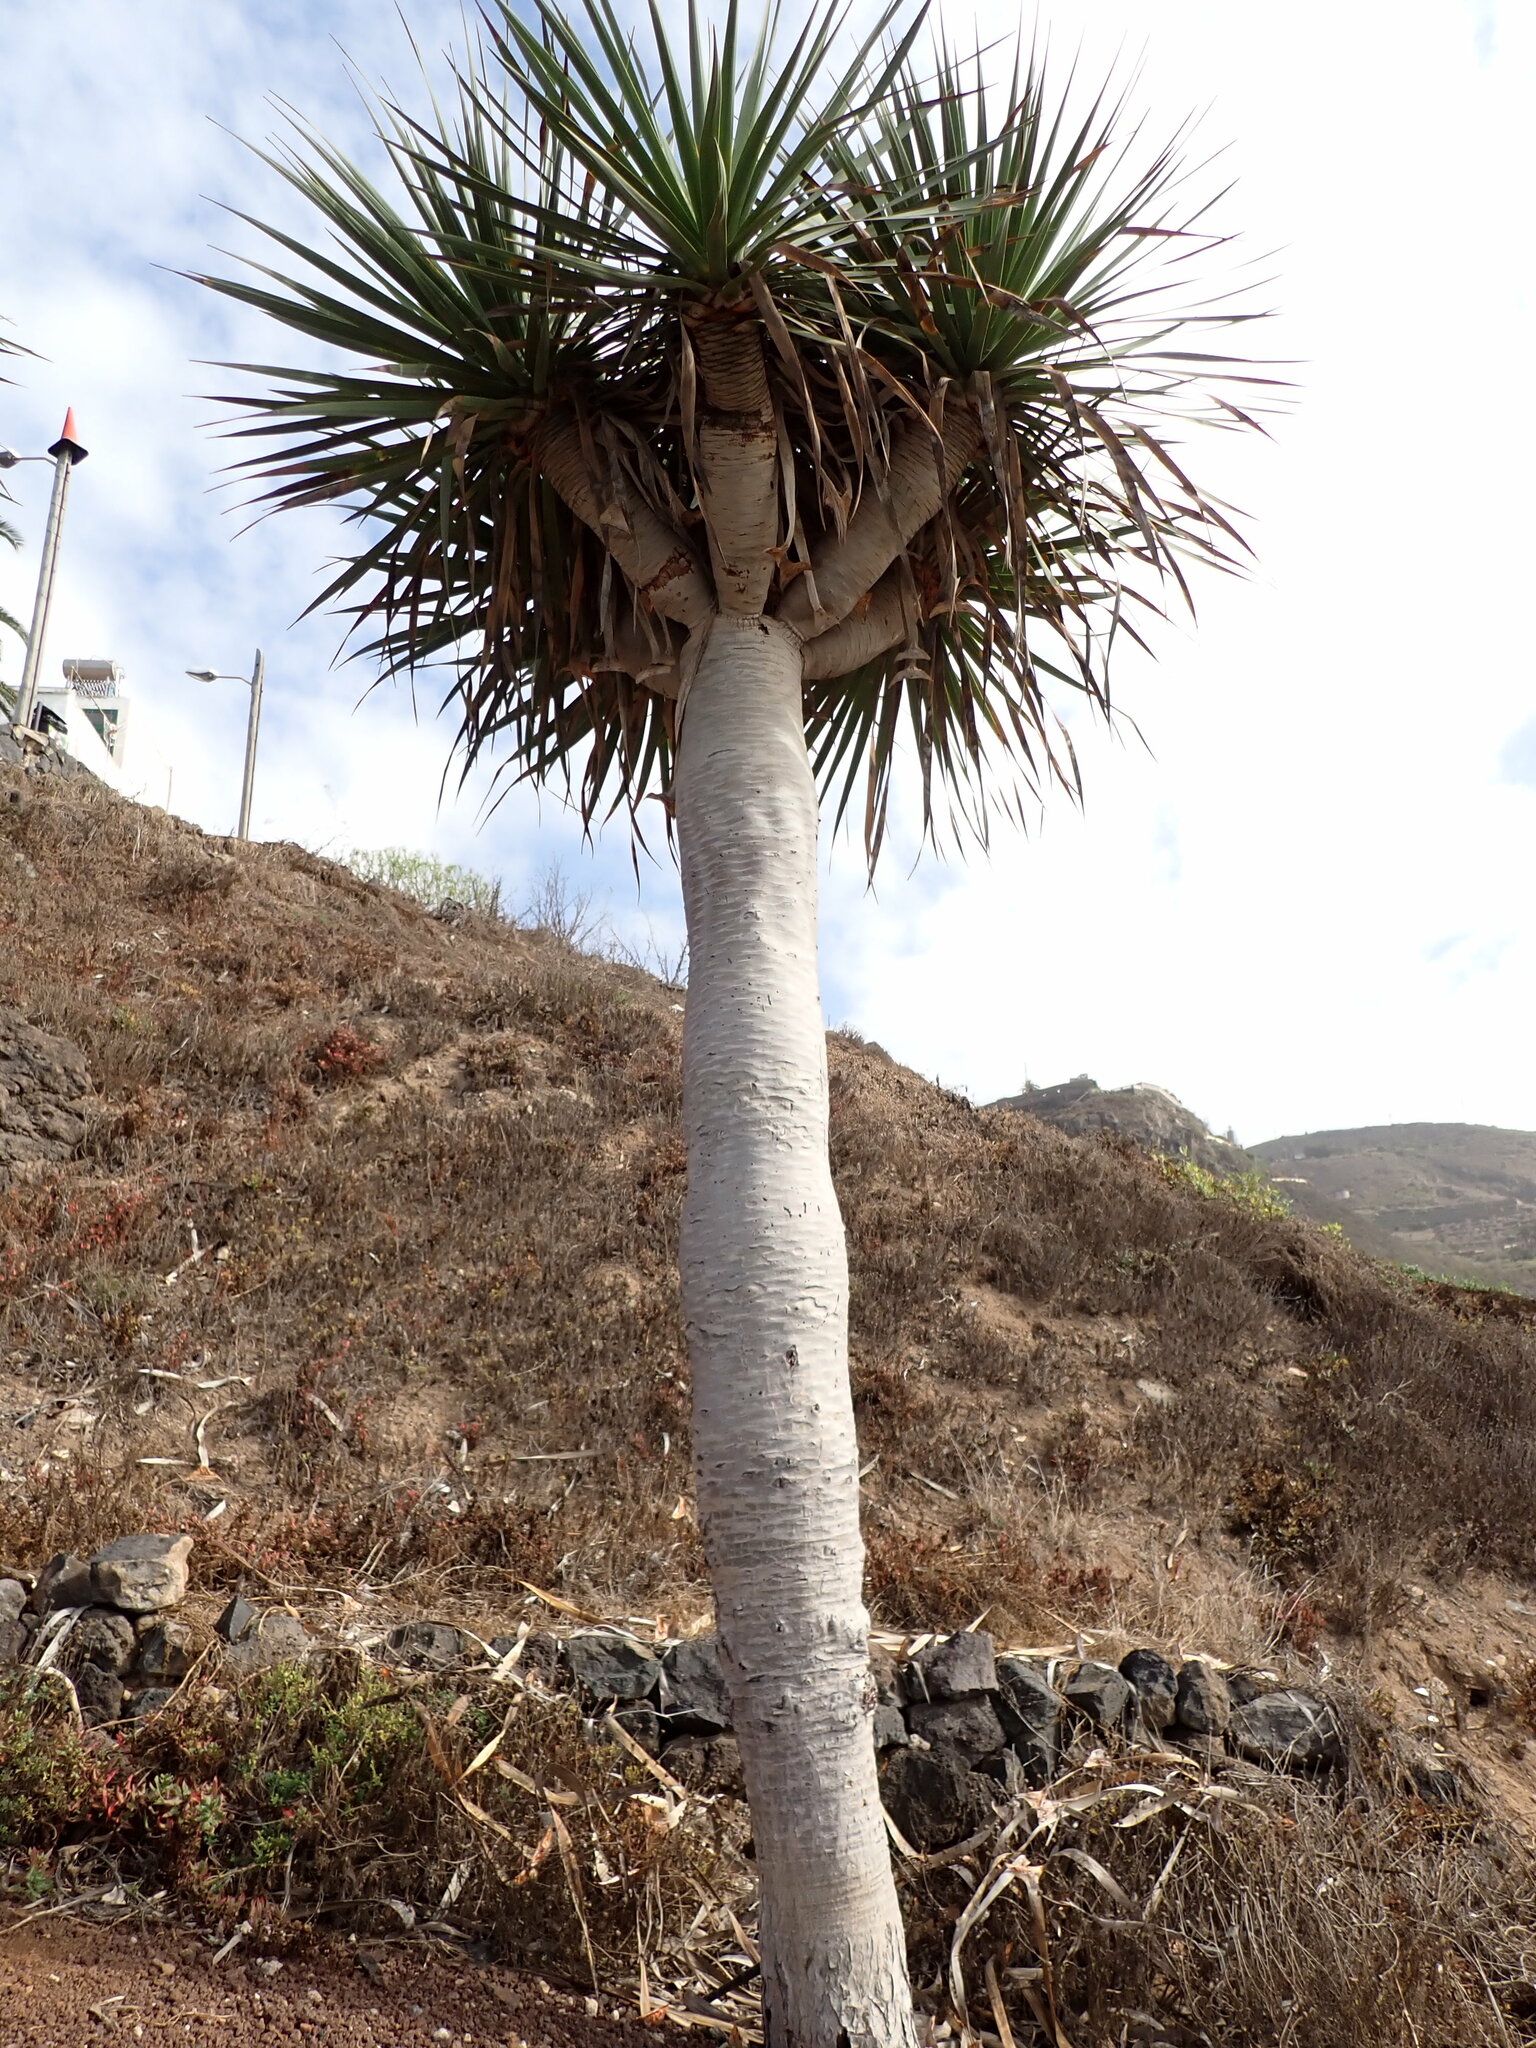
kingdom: Plantae
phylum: Tracheophyta
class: Liliopsida
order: Asparagales
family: Asparagaceae
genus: Dracaena
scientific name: Dracaena draco
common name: Canary island dragon tree
